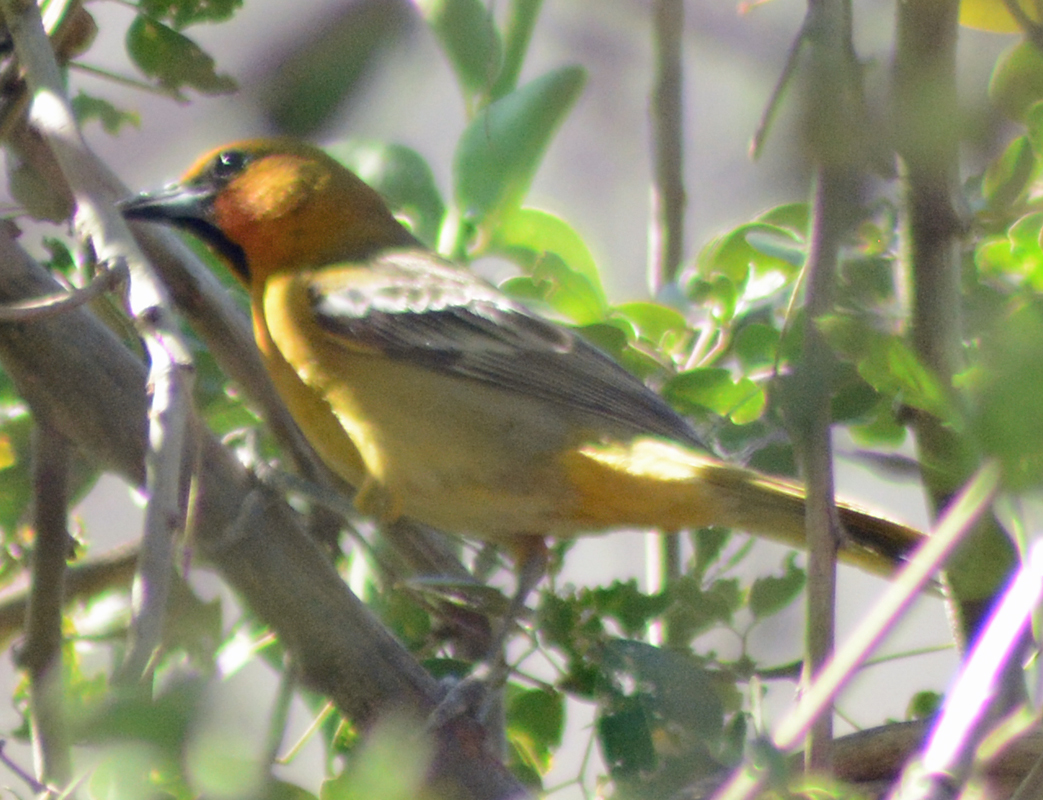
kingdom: Animalia
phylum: Chordata
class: Aves
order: Passeriformes
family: Icteridae
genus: Icterus
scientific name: Icterus pustulatus
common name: Streak-backed oriole
